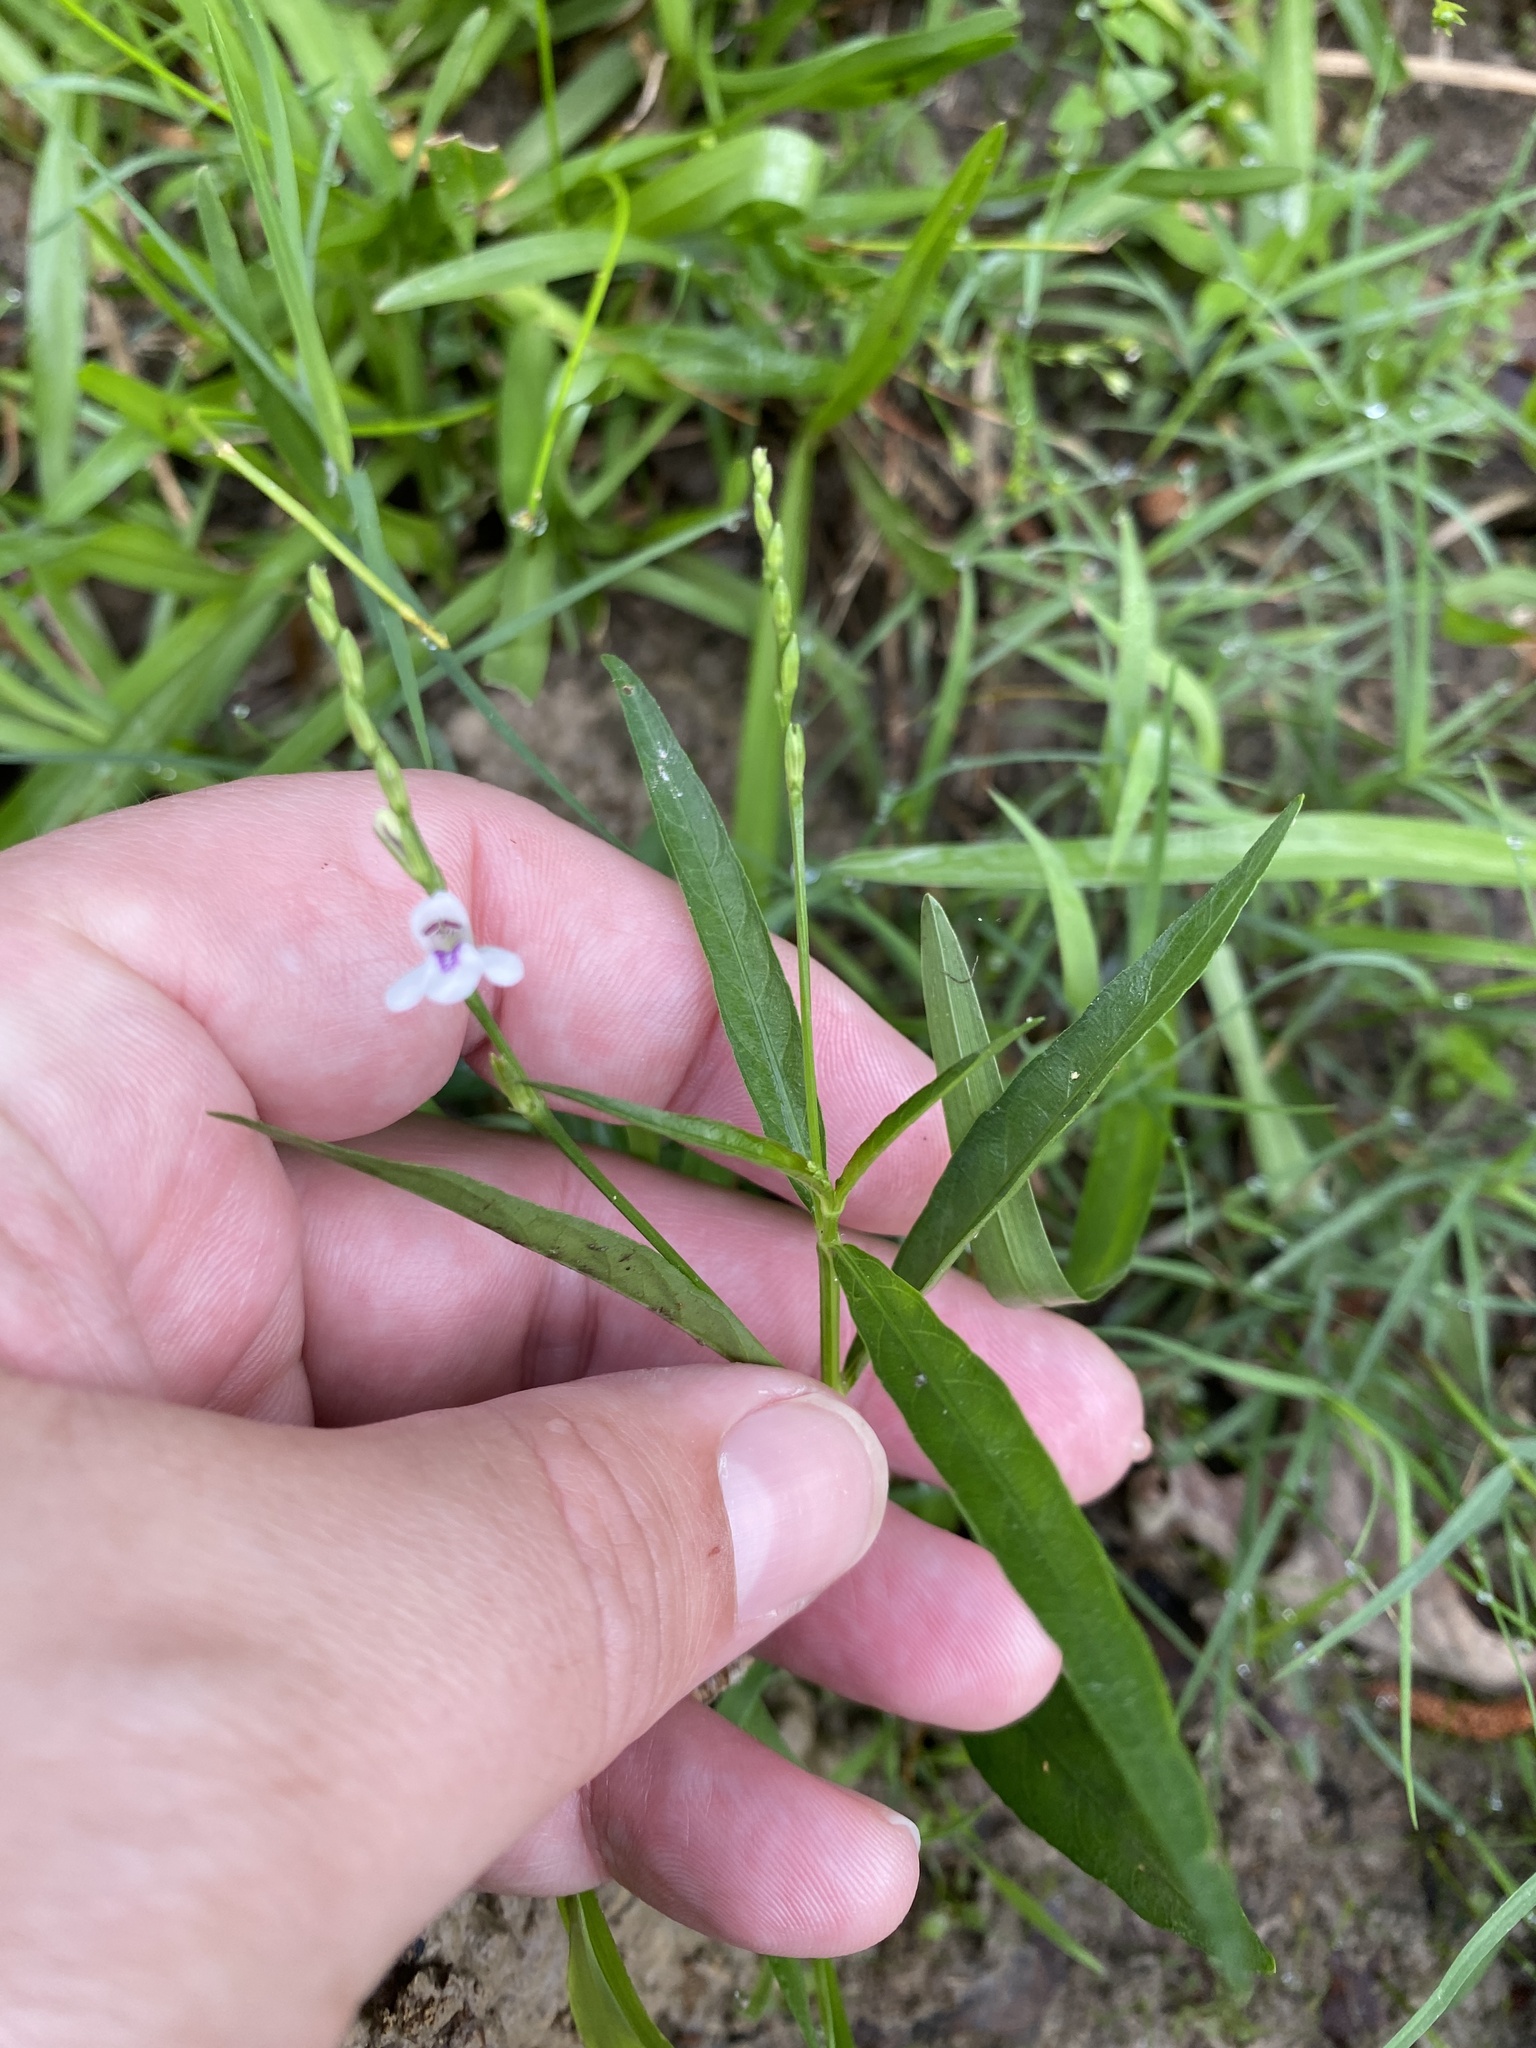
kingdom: Plantae
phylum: Tracheophyta
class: Magnoliopsida
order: Lamiales
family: Acanthaceae
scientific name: Acanthaceae
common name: Acanthaceae
